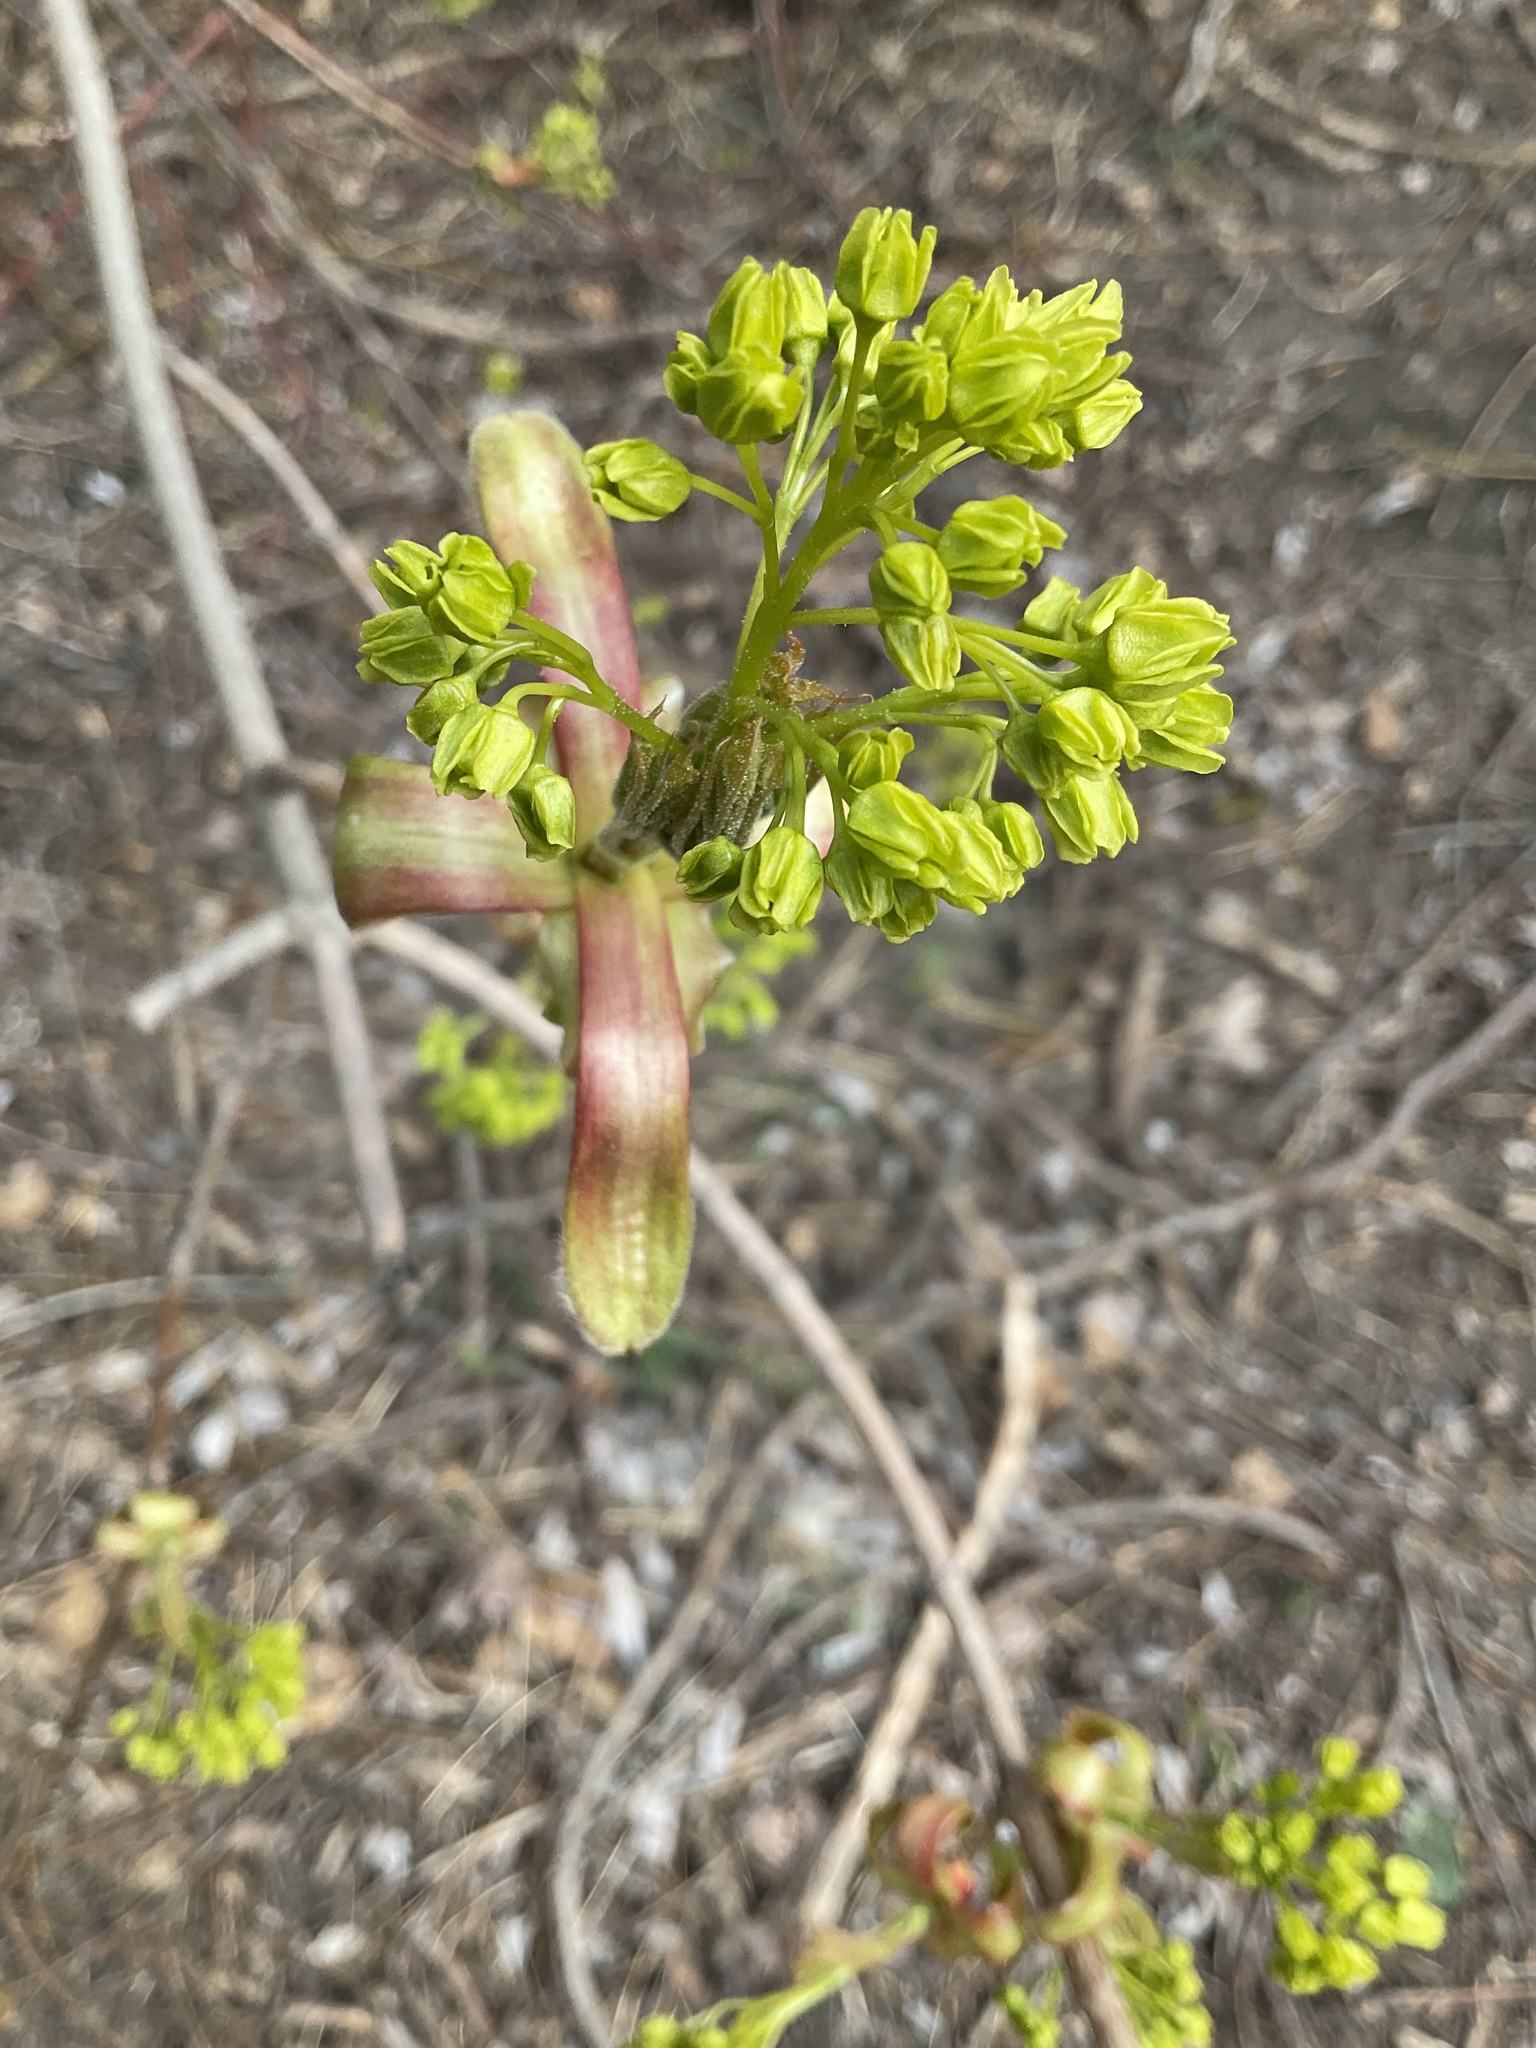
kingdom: Plantae
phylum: Tracheophyta
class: Magnoliopsida
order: Sapindales
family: Sapindaceae
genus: Acer
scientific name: Acer platanoides
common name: Norway maple
